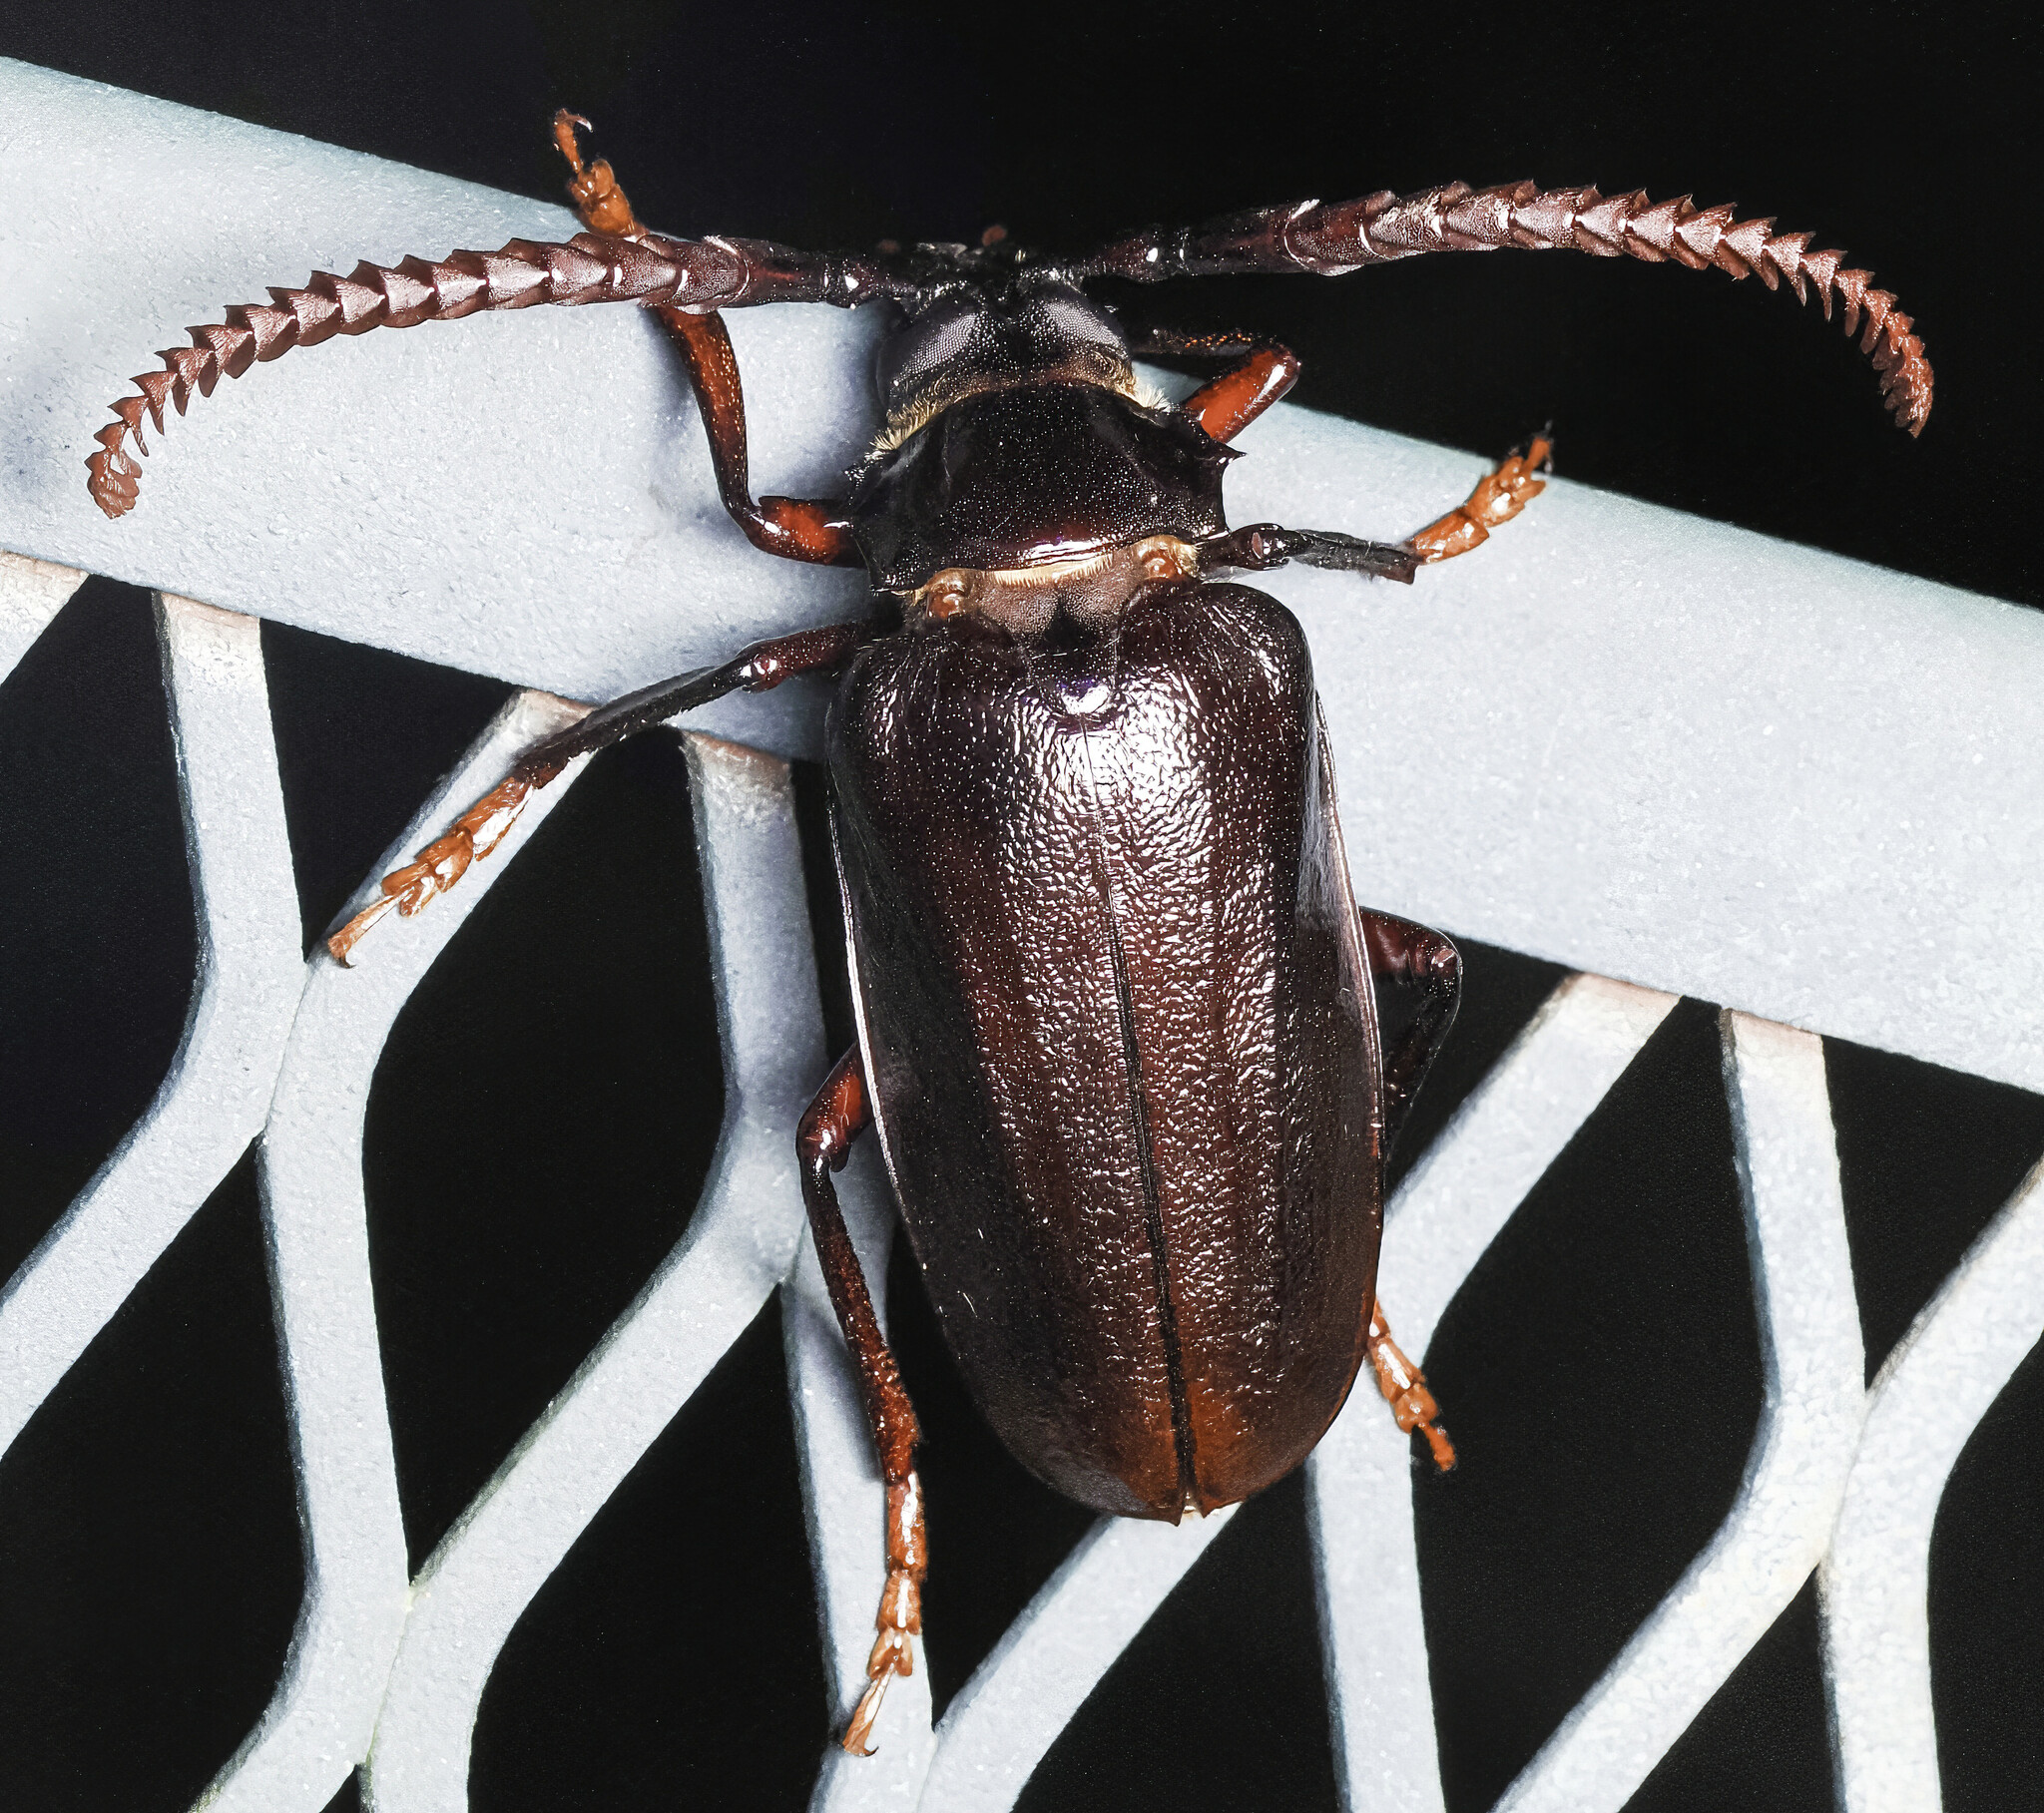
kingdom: Animalia
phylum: Arthropoda
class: Insecta
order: Coleoptera
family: Cerambycidae
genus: Prionus
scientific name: Prionus imbricornis
